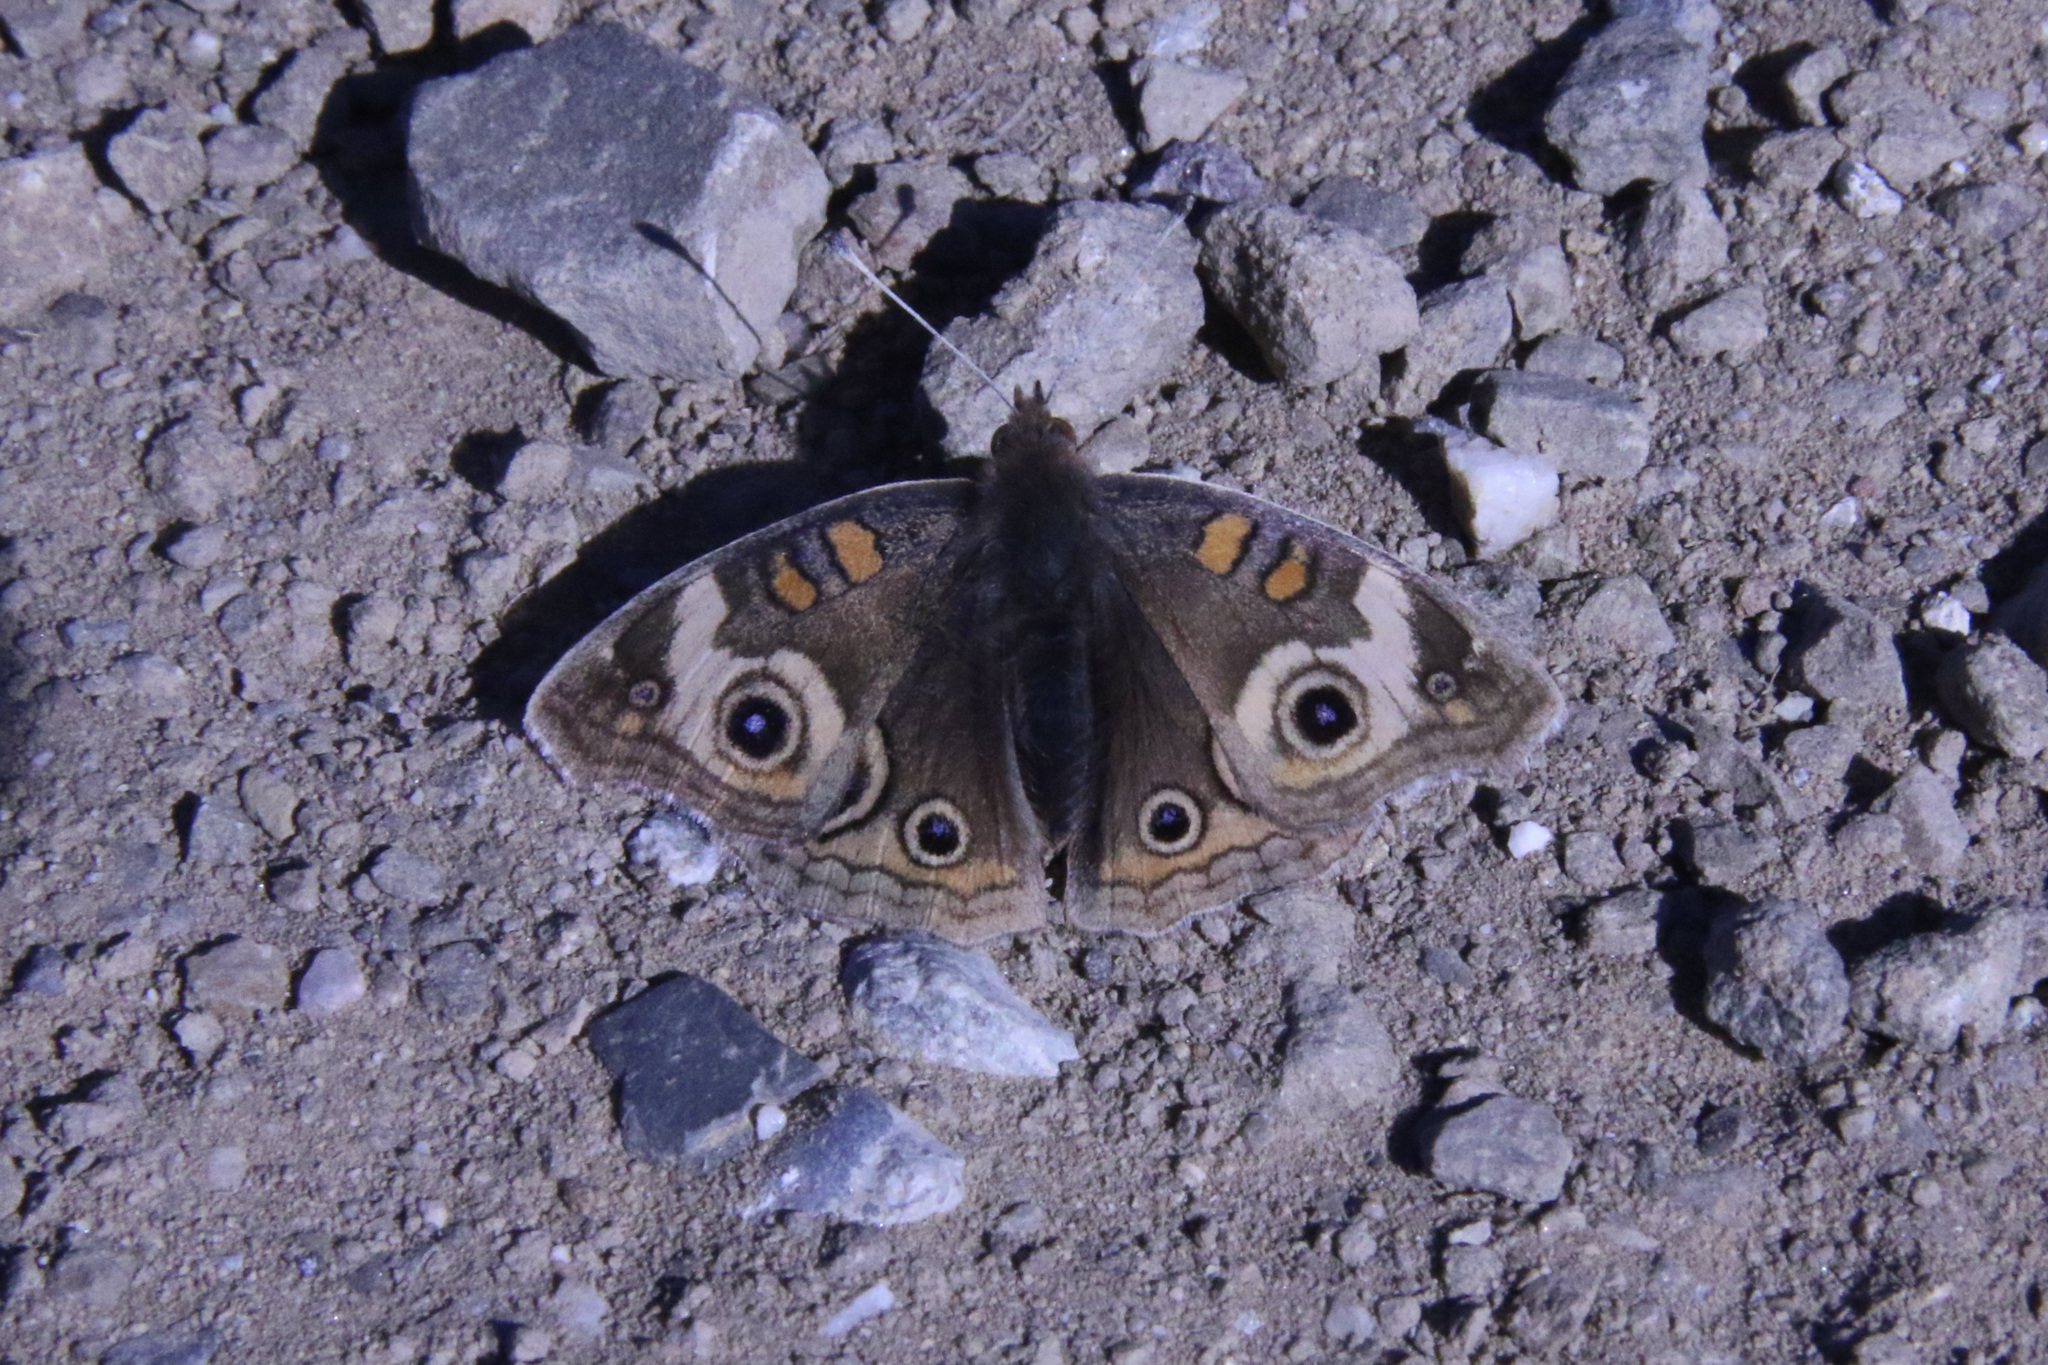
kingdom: Animalia
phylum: Arthropoda
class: Insecta
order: Lepidoptera
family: Nymphalidae
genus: Junonia
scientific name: Junonia grisea
